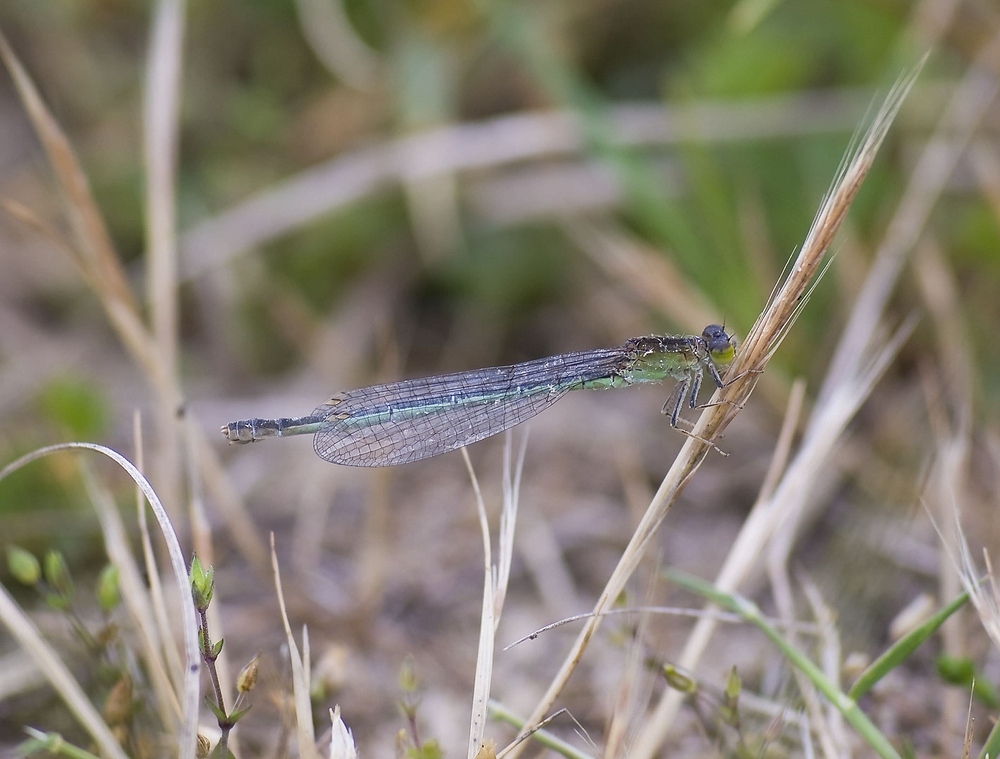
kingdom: Animalia
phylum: Arthropoda
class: Insecta
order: Odonata
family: Coenagrionidae
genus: Ischnura
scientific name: Ischnura pumilio
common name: Scarce blue-tailed damselfly
